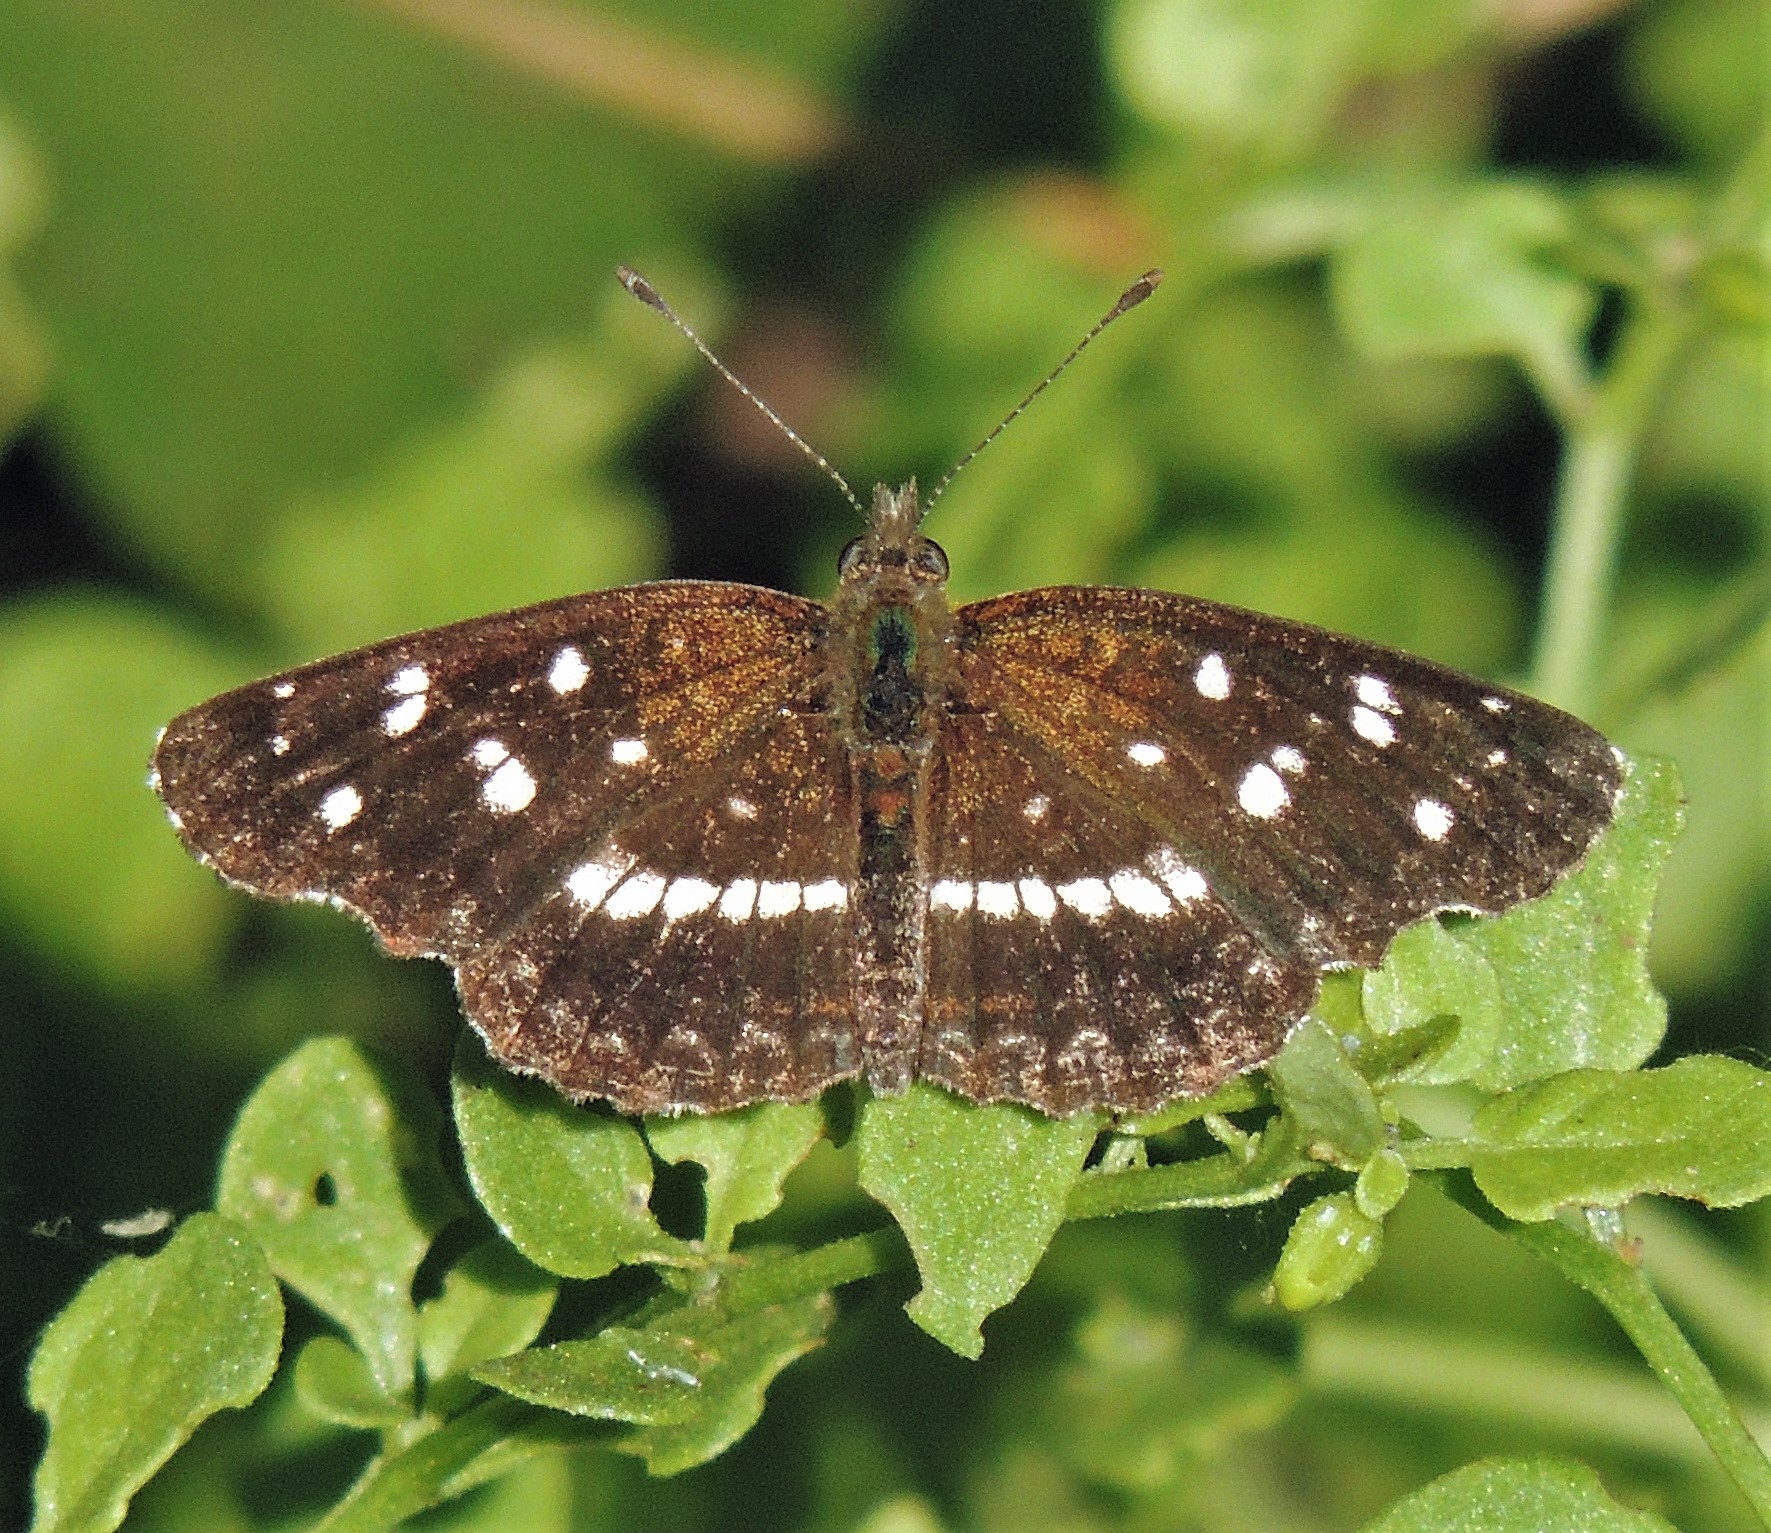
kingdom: Animalia
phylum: Arthropoda
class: Insecta
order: Lepidoptera
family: Nymphalidae
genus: Ortilia
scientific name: Ortilia ithra
